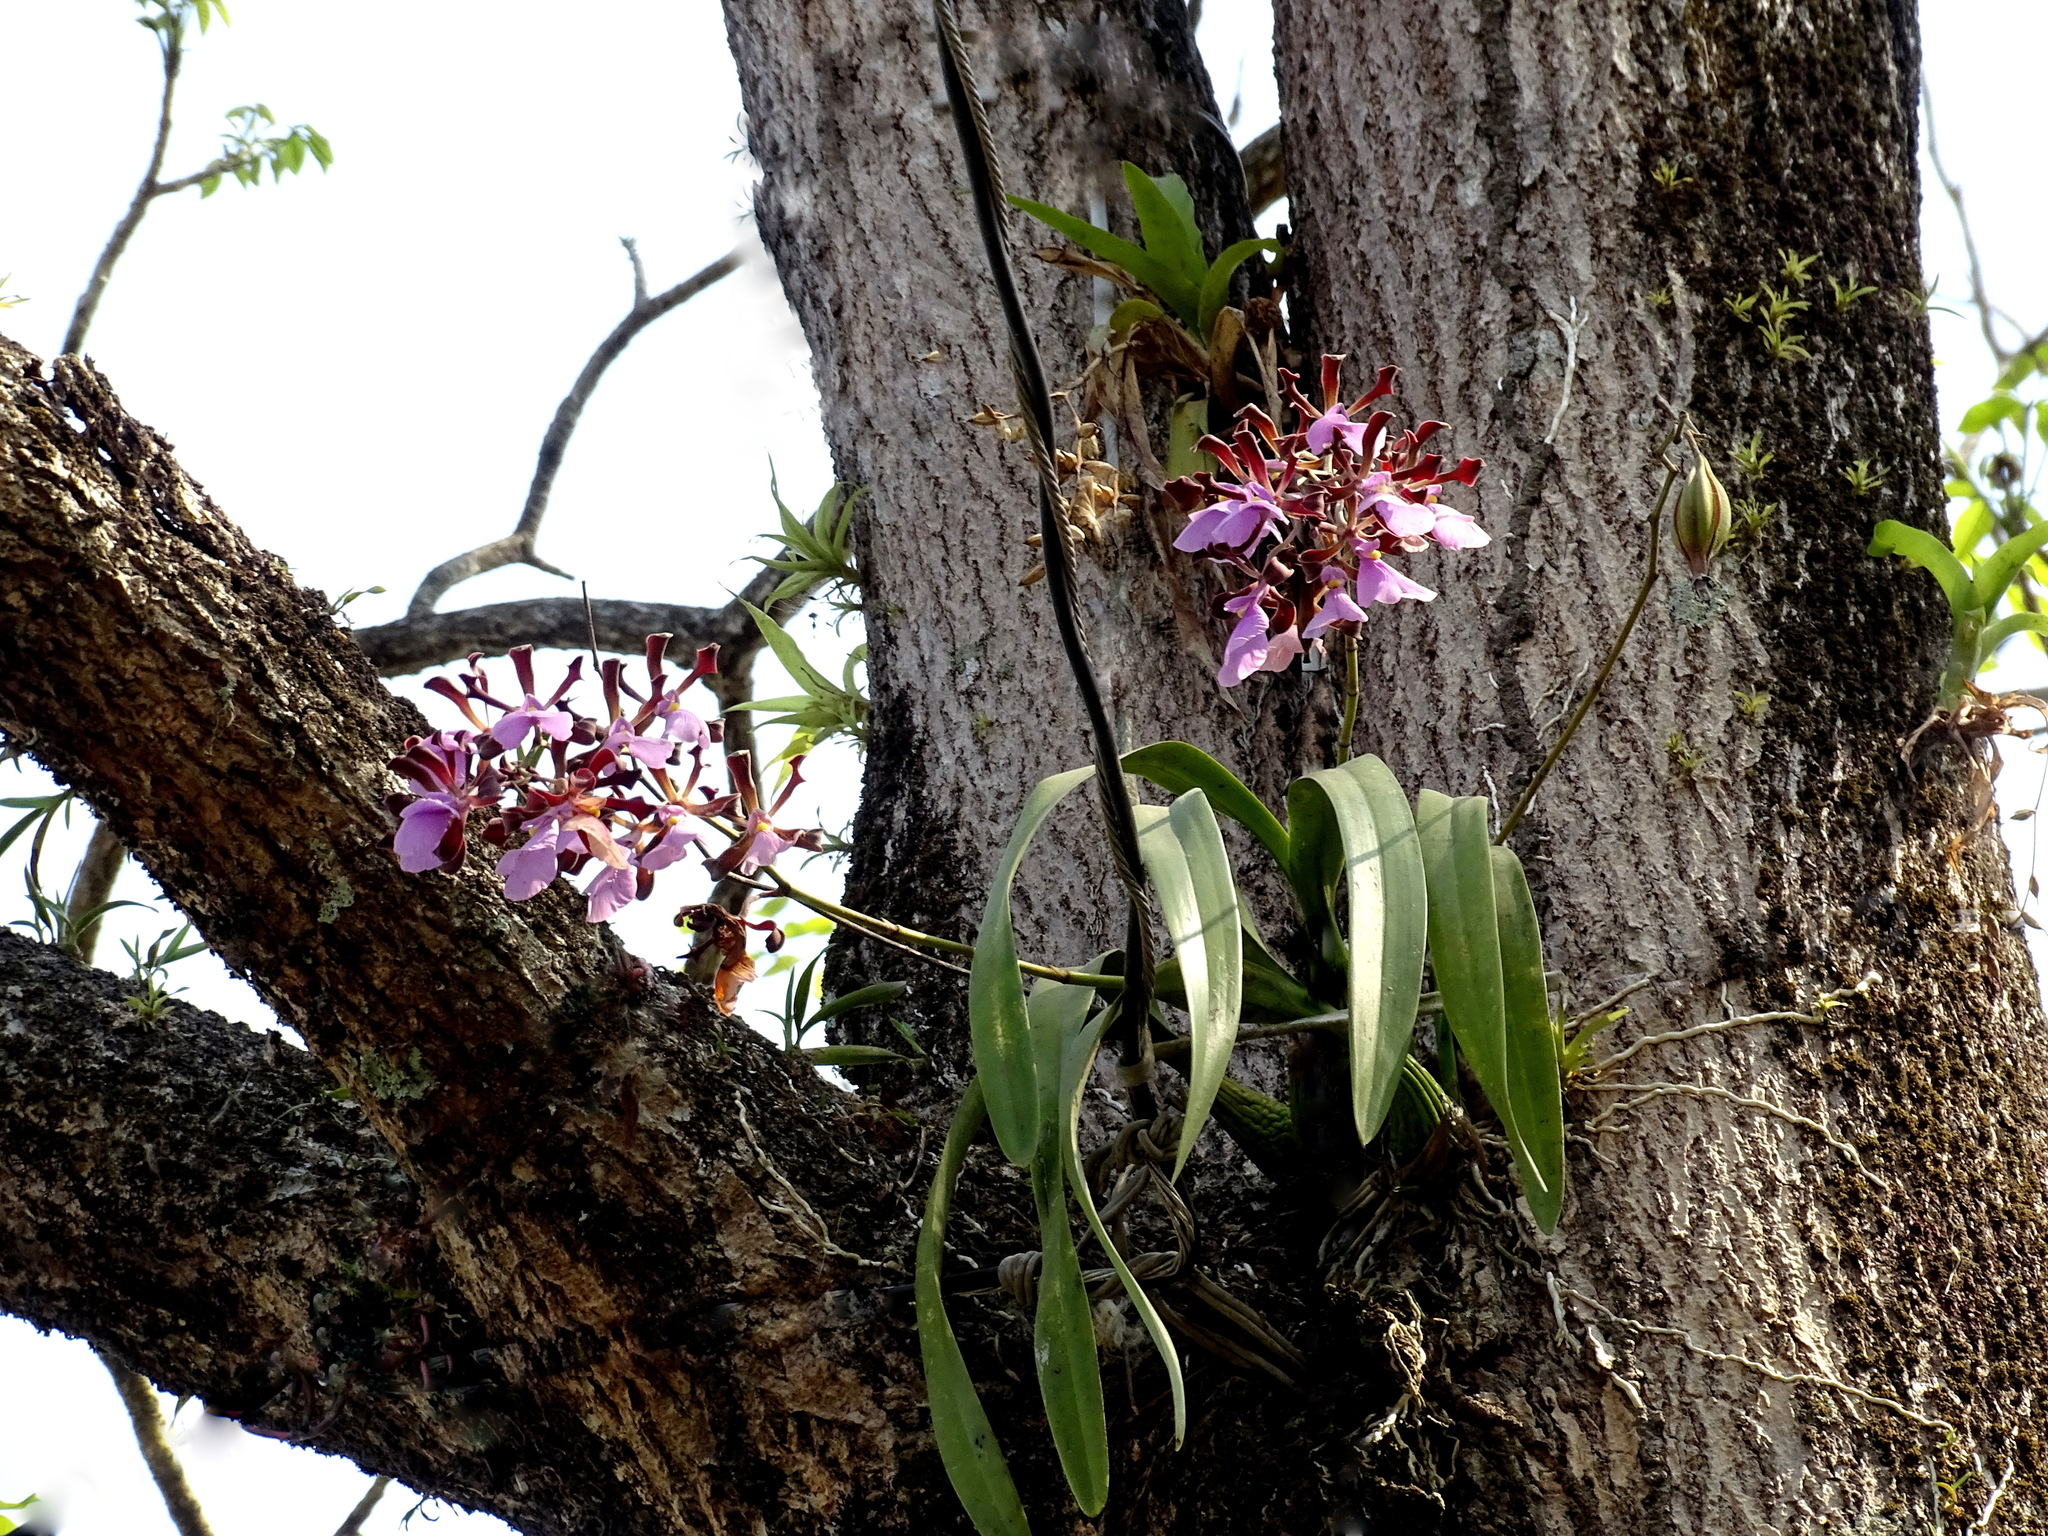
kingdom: Plantae
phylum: Tracheophyta
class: Liliopsida
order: Asparagales
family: Orchidaceae
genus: Encyclia
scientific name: Encyclia cordigera
